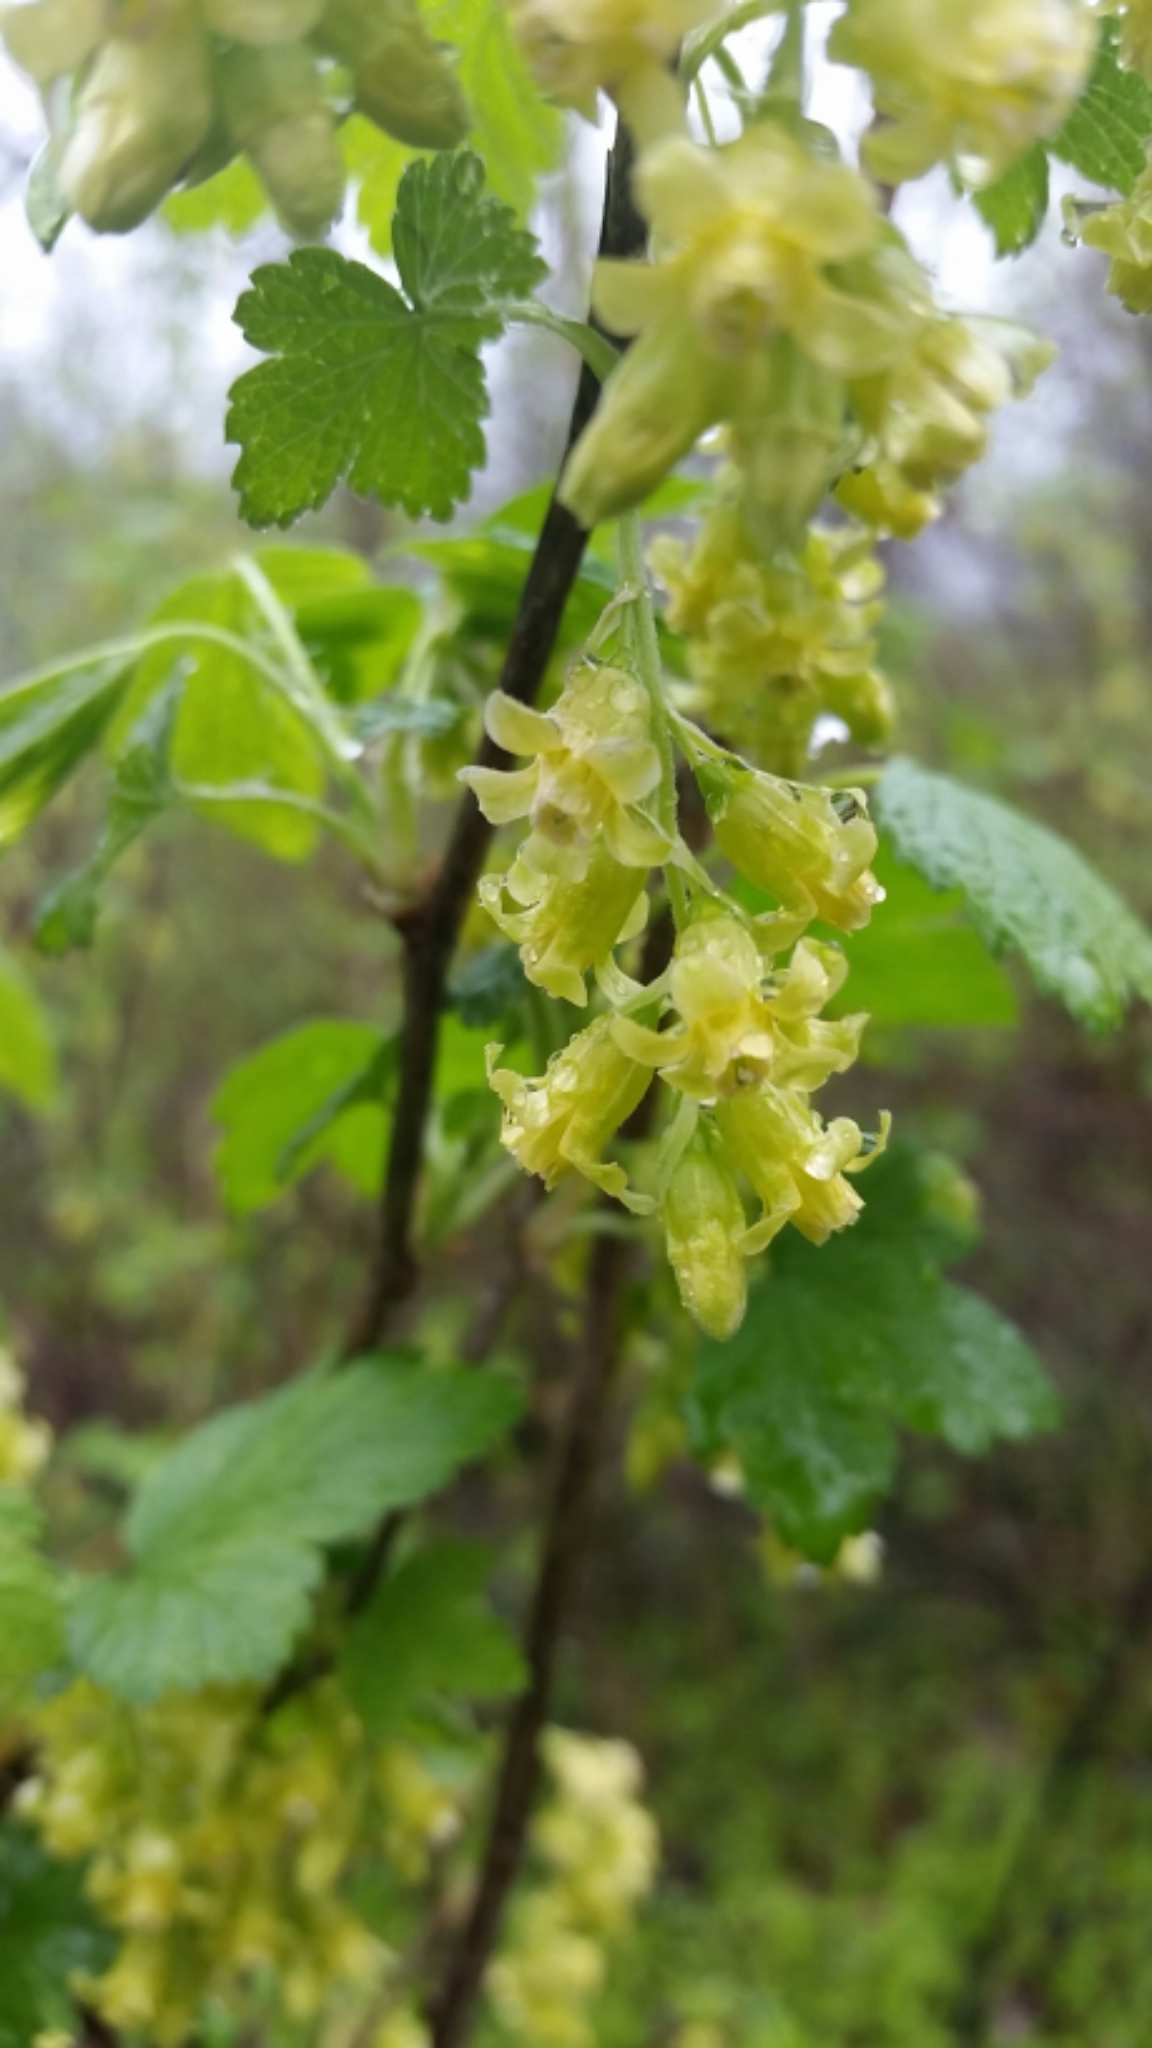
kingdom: Plantae
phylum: Tracheophyta
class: Magnoliopsida
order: Saxifragales
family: Grossulariaceae
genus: Ribes
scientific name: Ribes americanum
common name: American black currant
